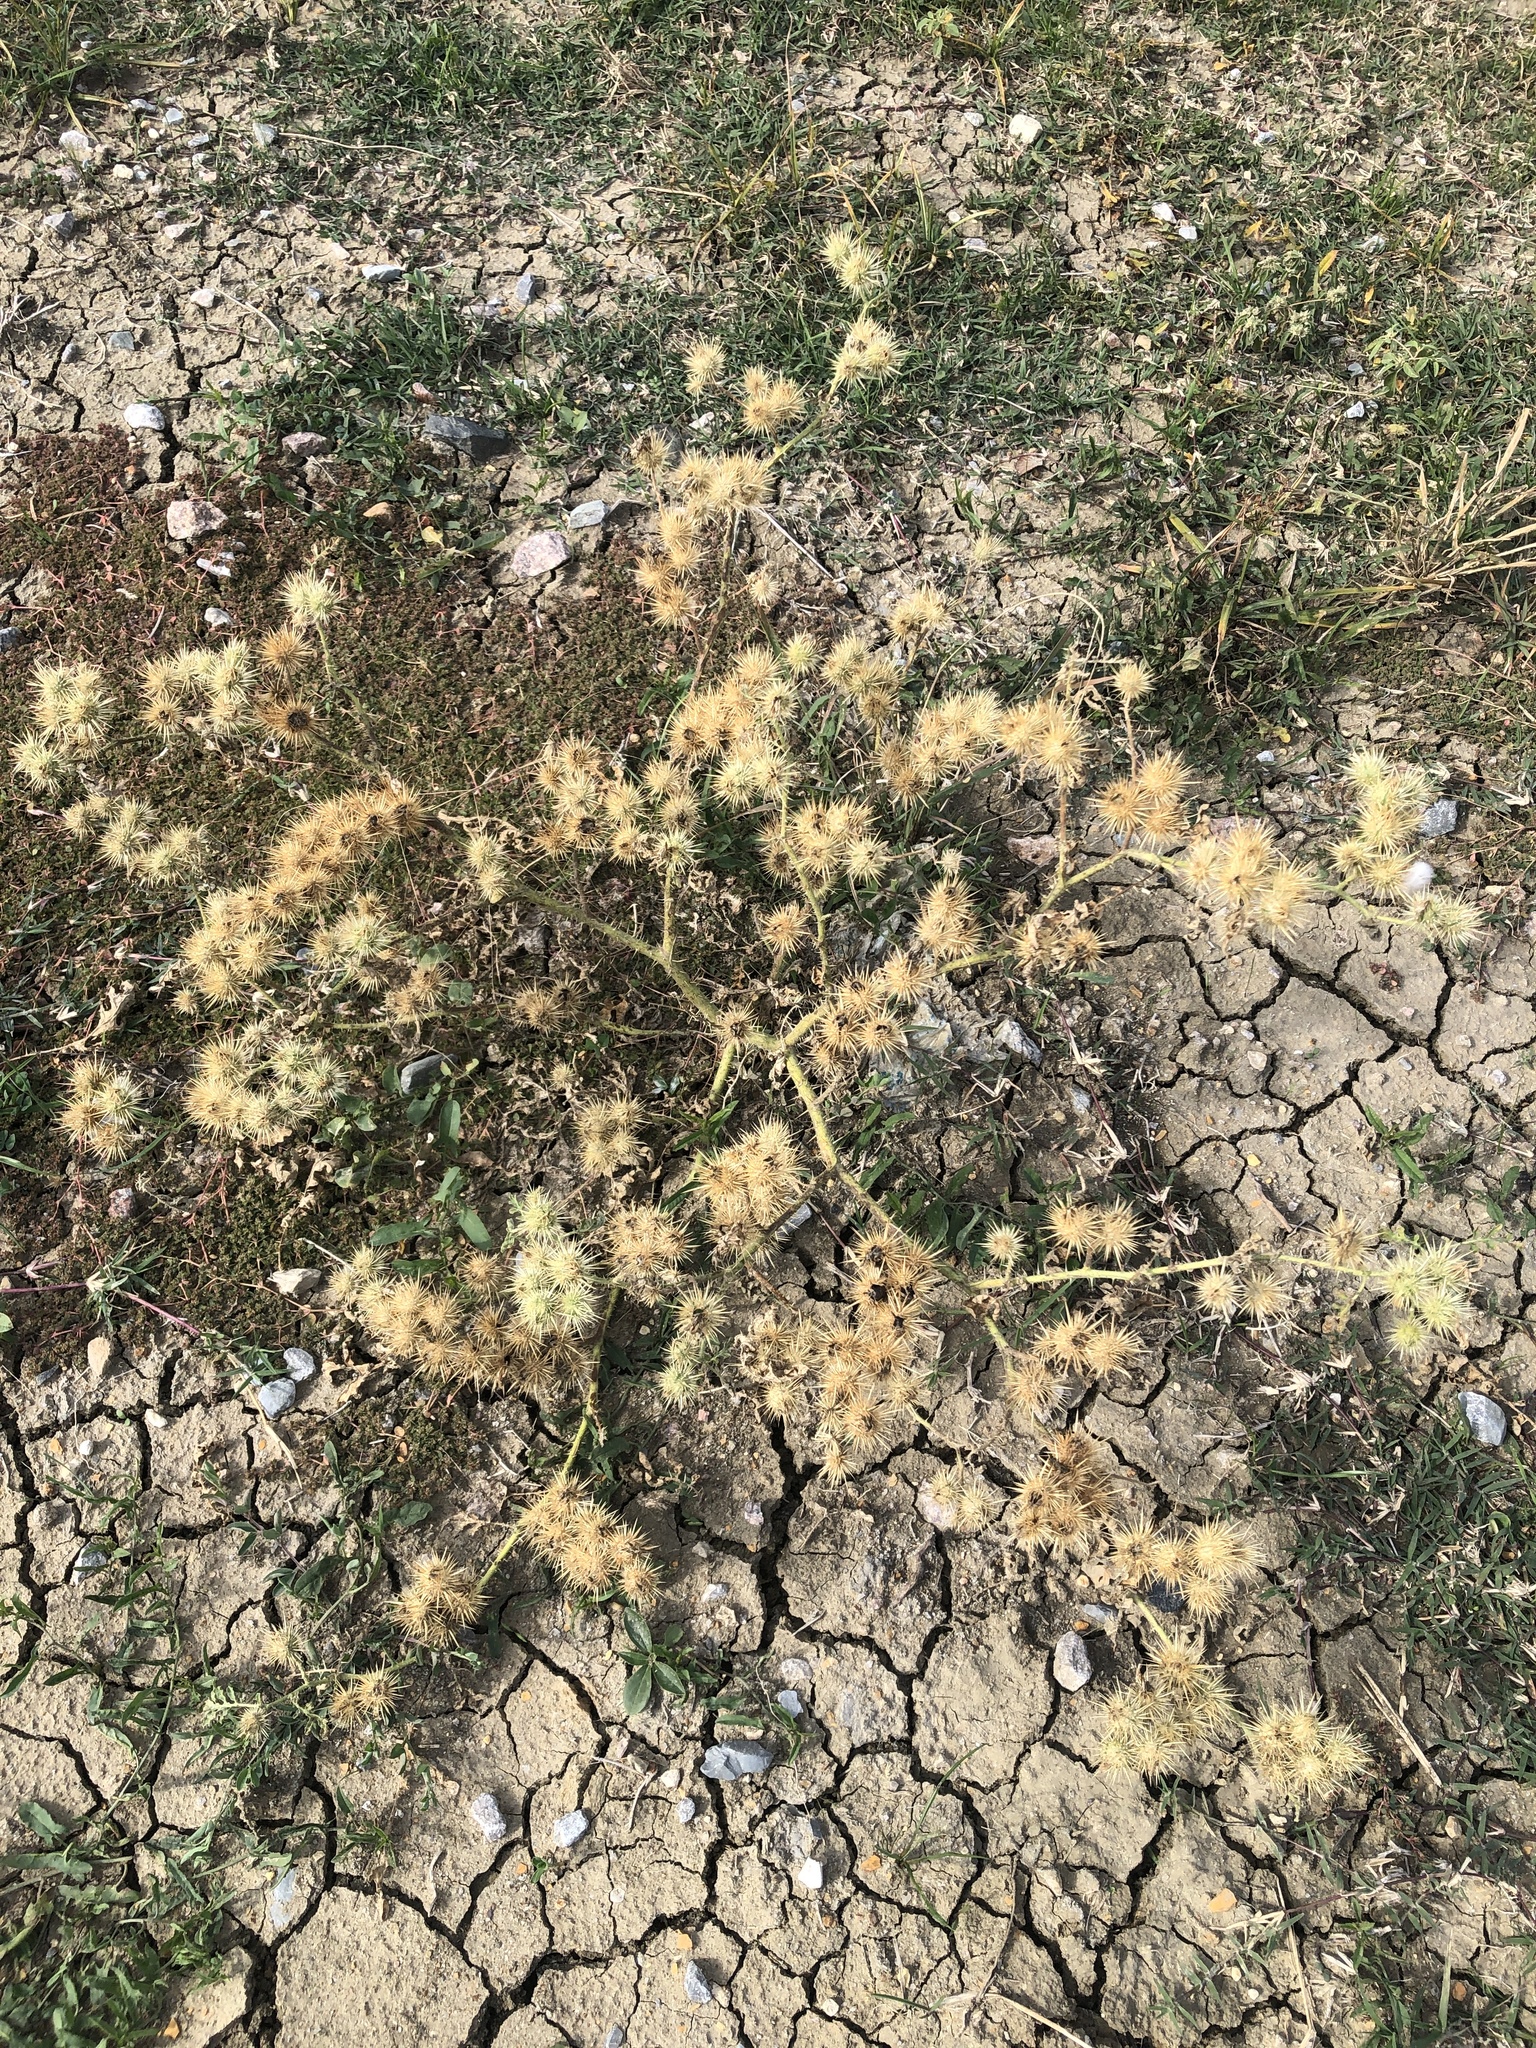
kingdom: Plantae
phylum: Tracheophyta
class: Magnoliopsida
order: Solanales
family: Solanaceae
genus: Solanum
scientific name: Solanum angustifolium
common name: Buffalobur nightshade
